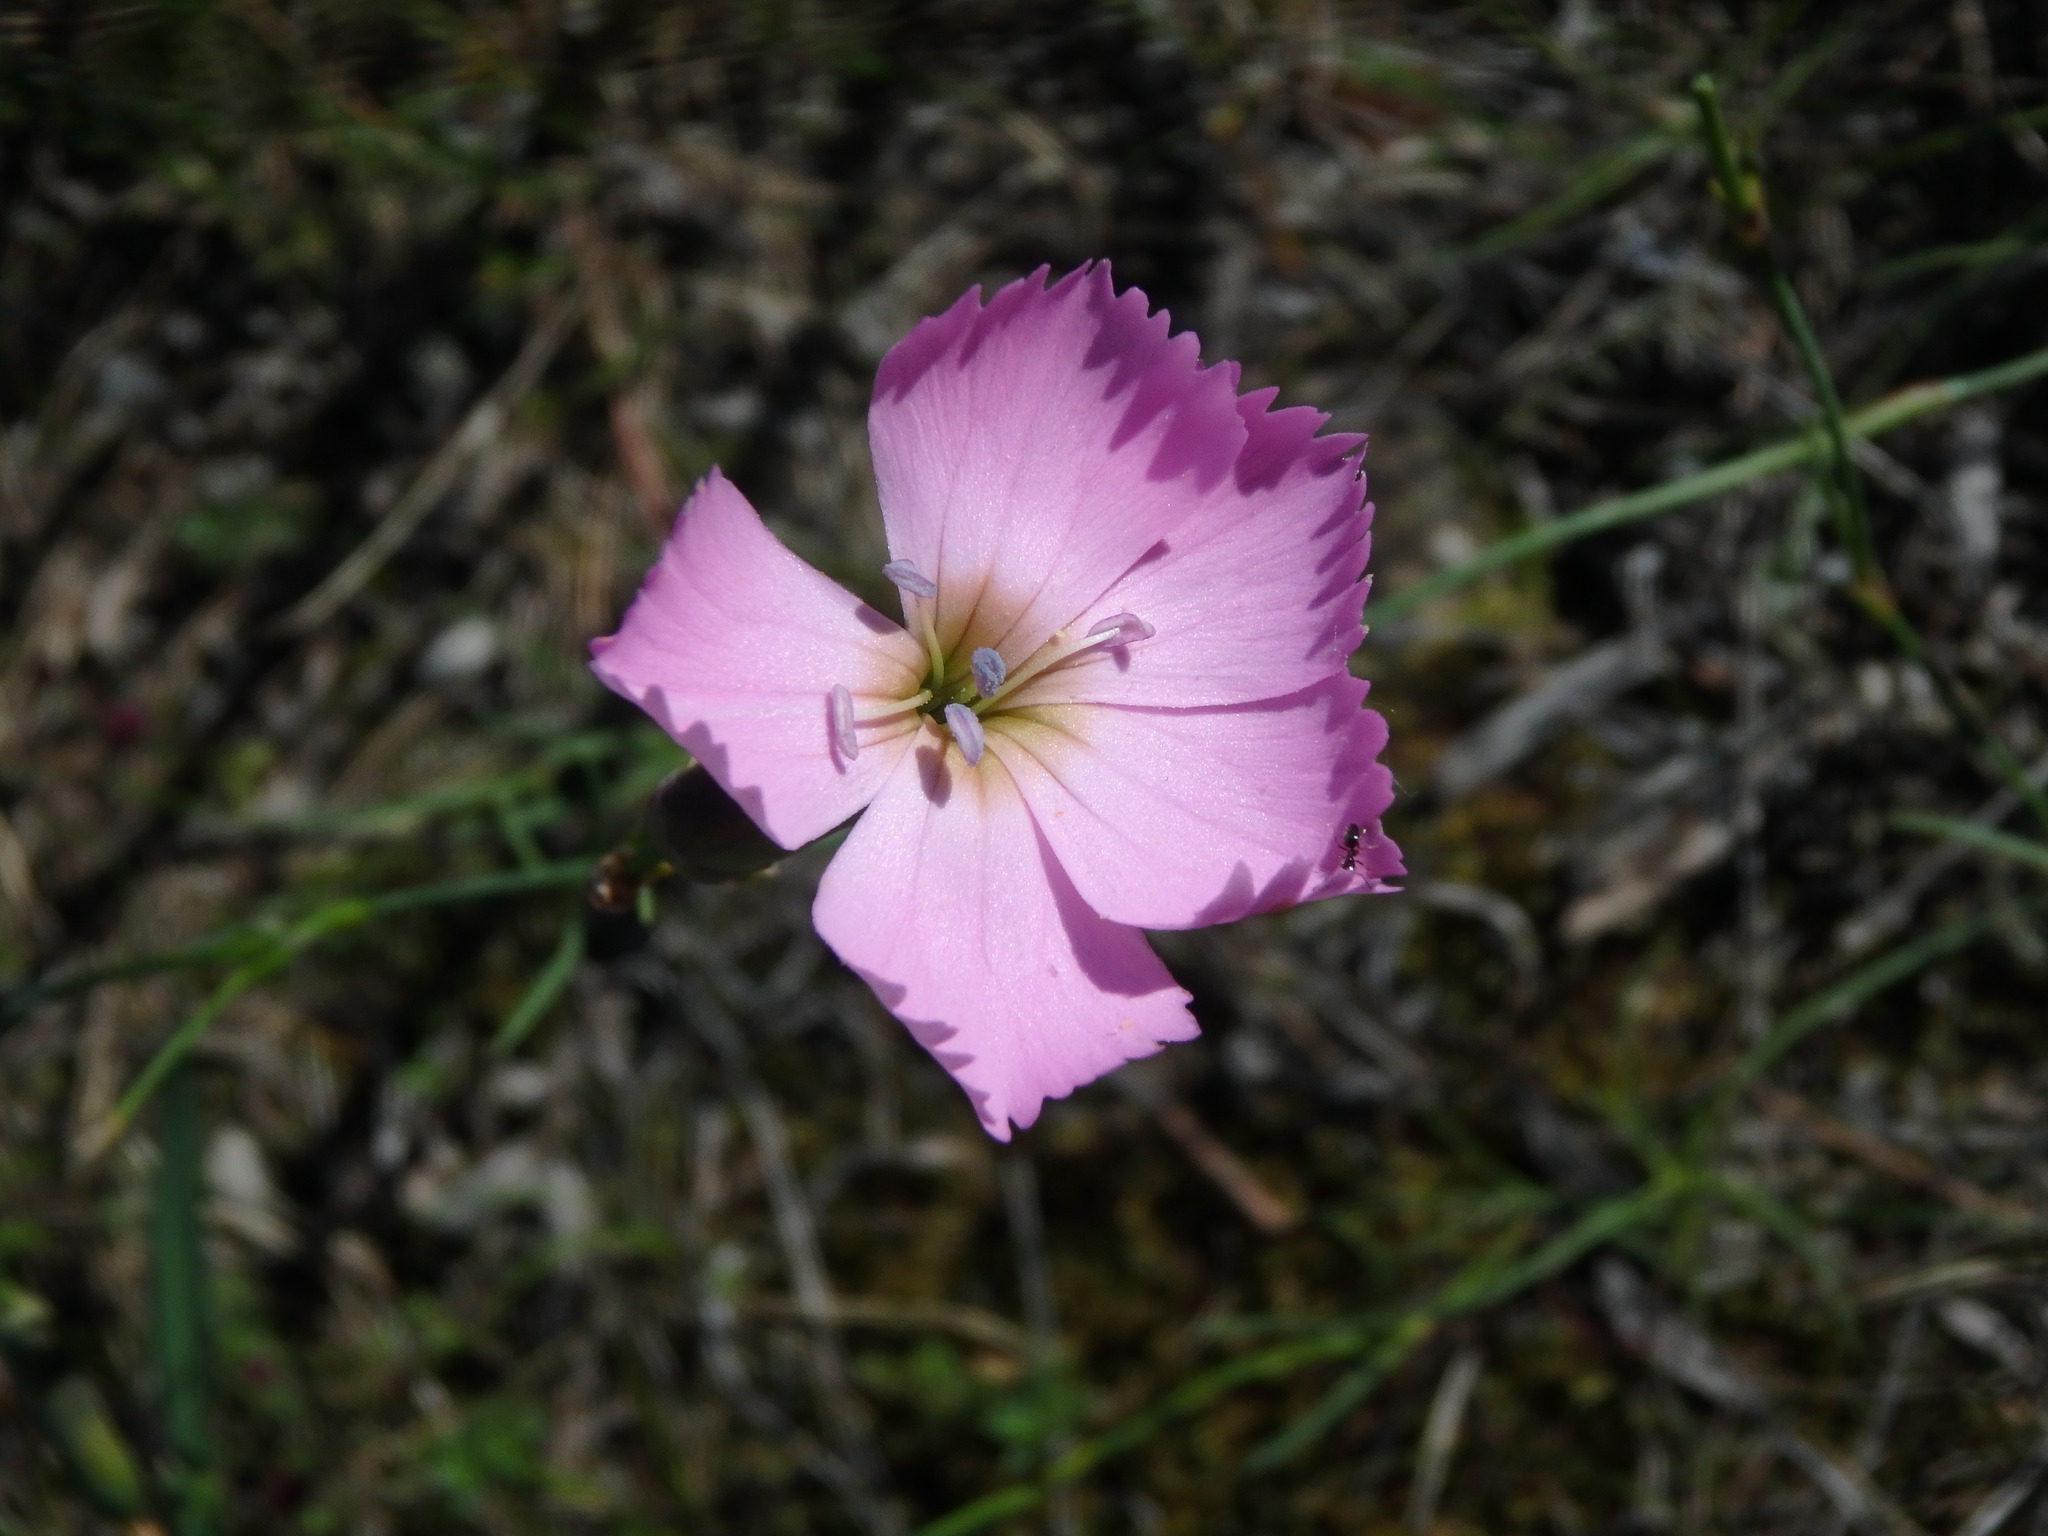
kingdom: Plantae
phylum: Tracheophyta
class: Magnoliopsida
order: Caryophyllales
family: Caryophyllaceae
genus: Dianthus
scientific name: Dianthus sylvestris
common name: Wood pink
